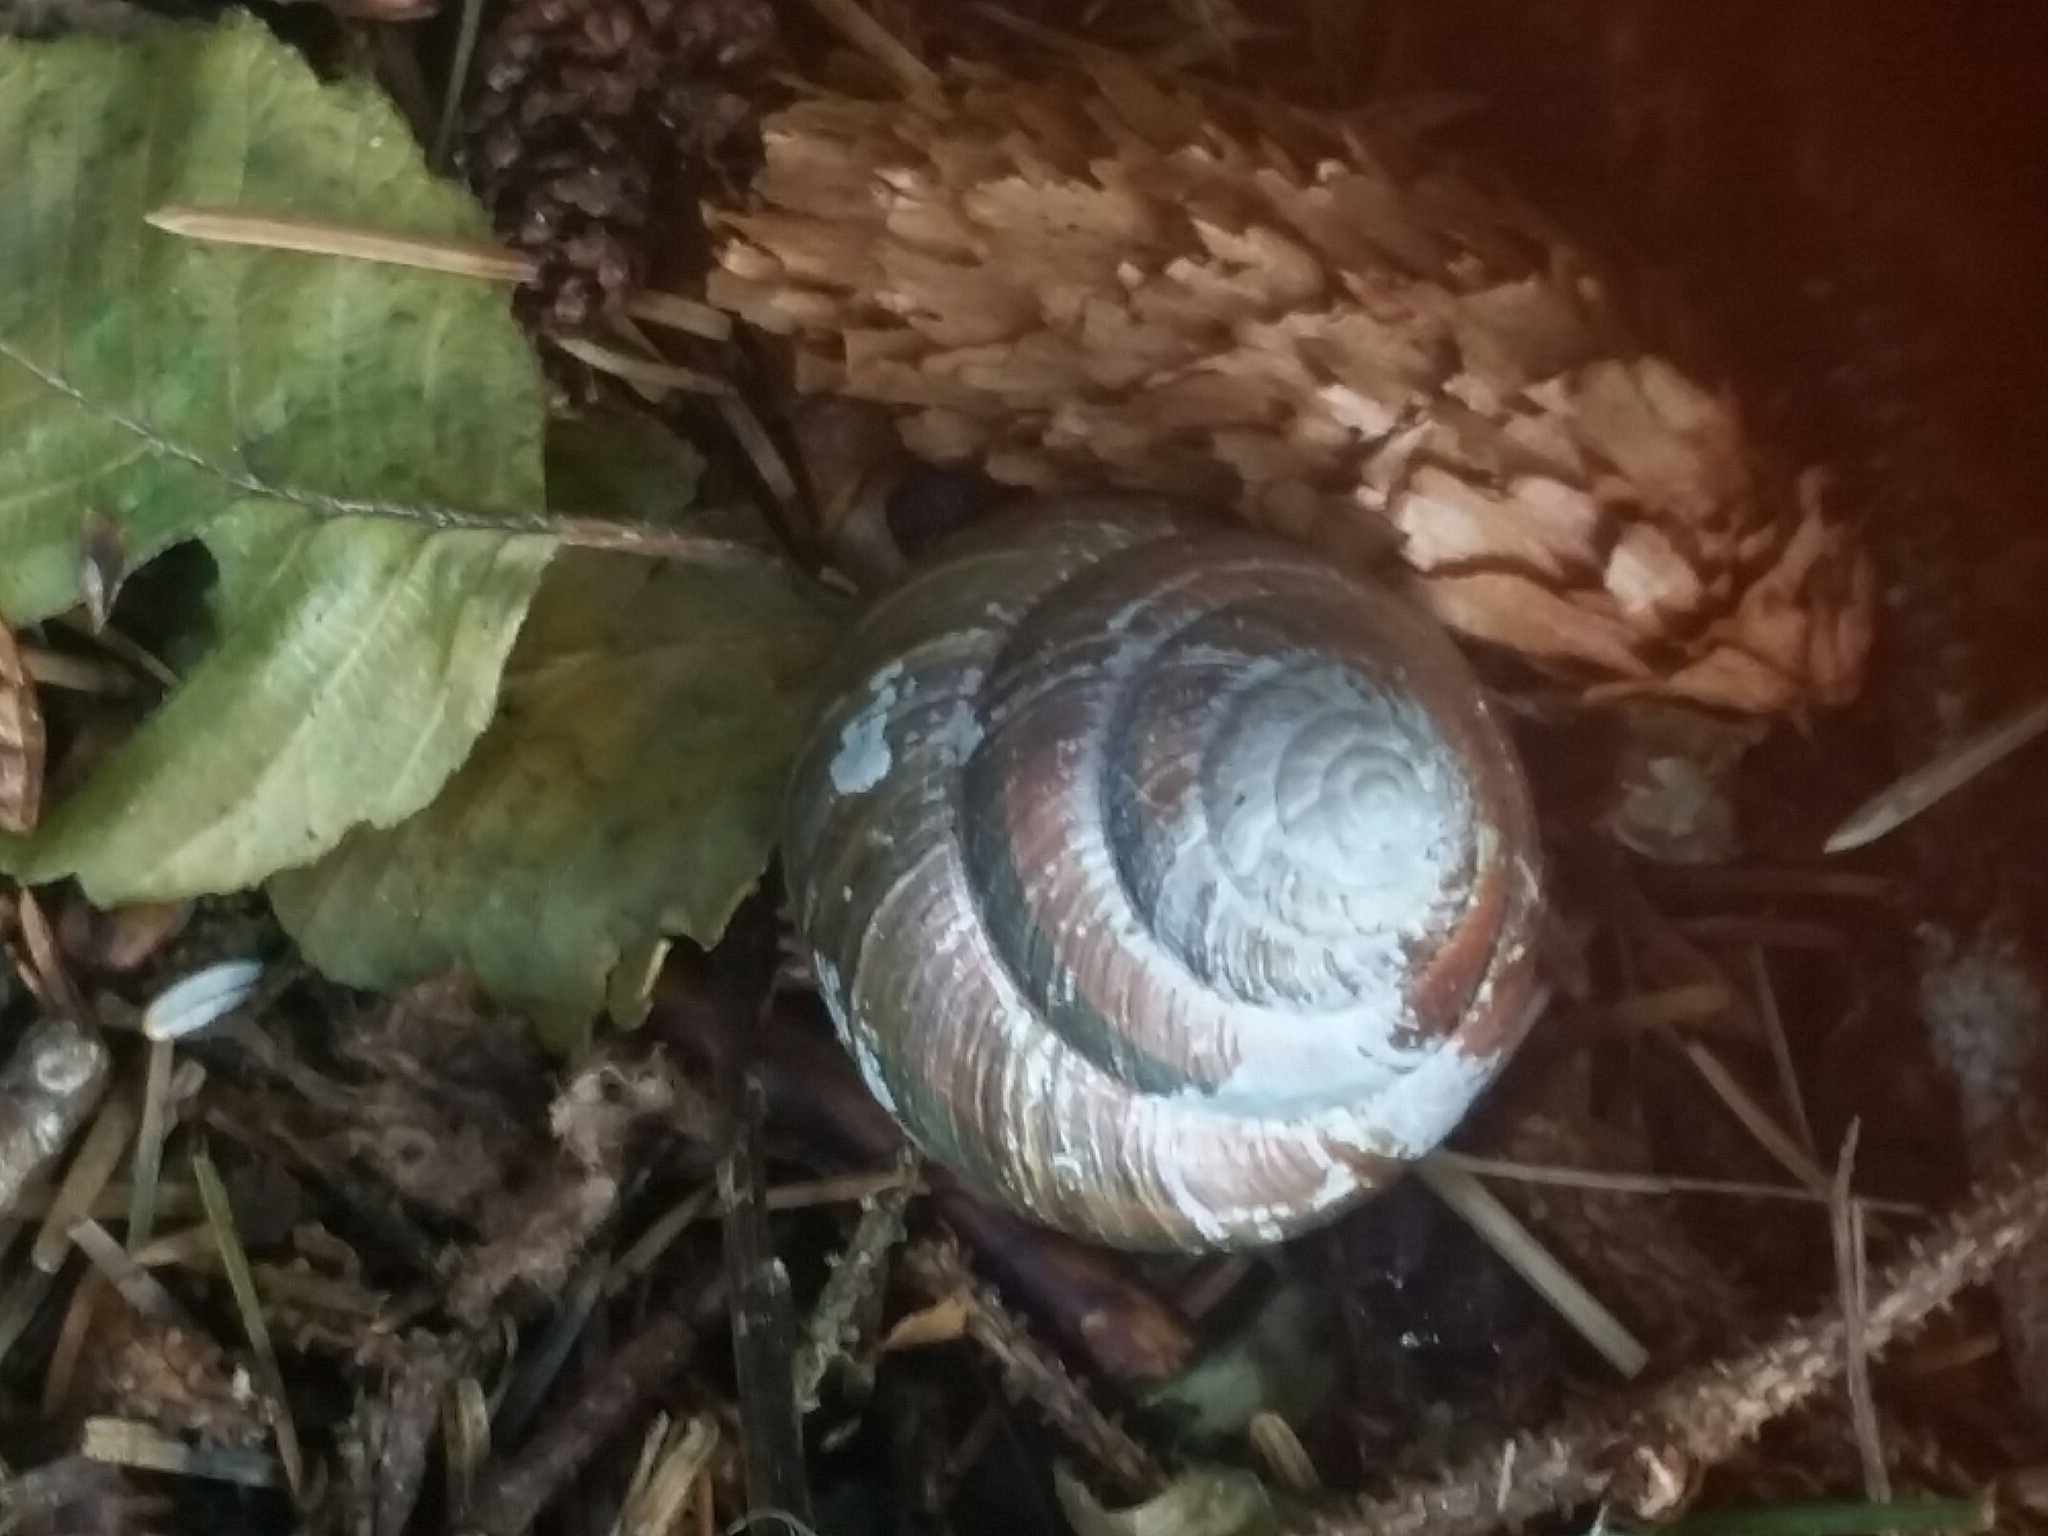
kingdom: Animalia
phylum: Mollusca
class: Gastropoda
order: Stylommatophora
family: Xanthonychidae
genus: Monadenia
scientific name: Monadenia fidelis
